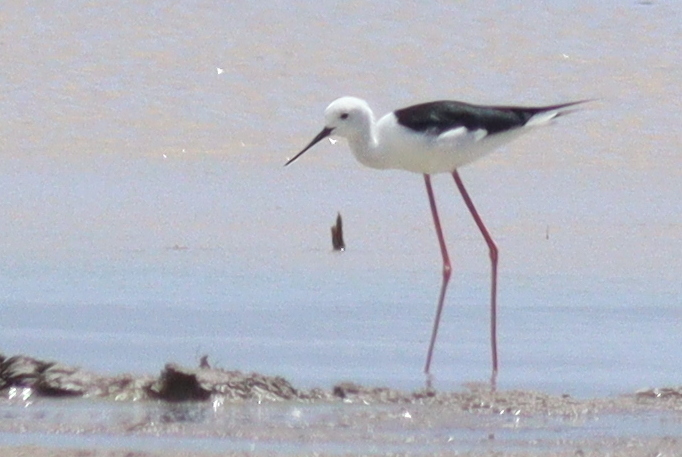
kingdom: Animalia
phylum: Chordata
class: Aves
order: Charadriiformes
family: Recurvirostridae
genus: Himantopus
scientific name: Himantopus himantopus
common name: Black-winged stilt
